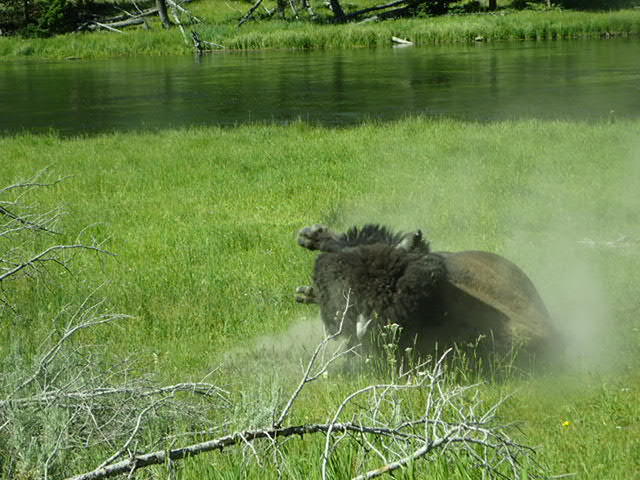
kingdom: Animalia
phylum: Chordata
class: Mammalia
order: Artiodactyla
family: Bovidae
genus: Bison
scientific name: Bison bison
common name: American bison
